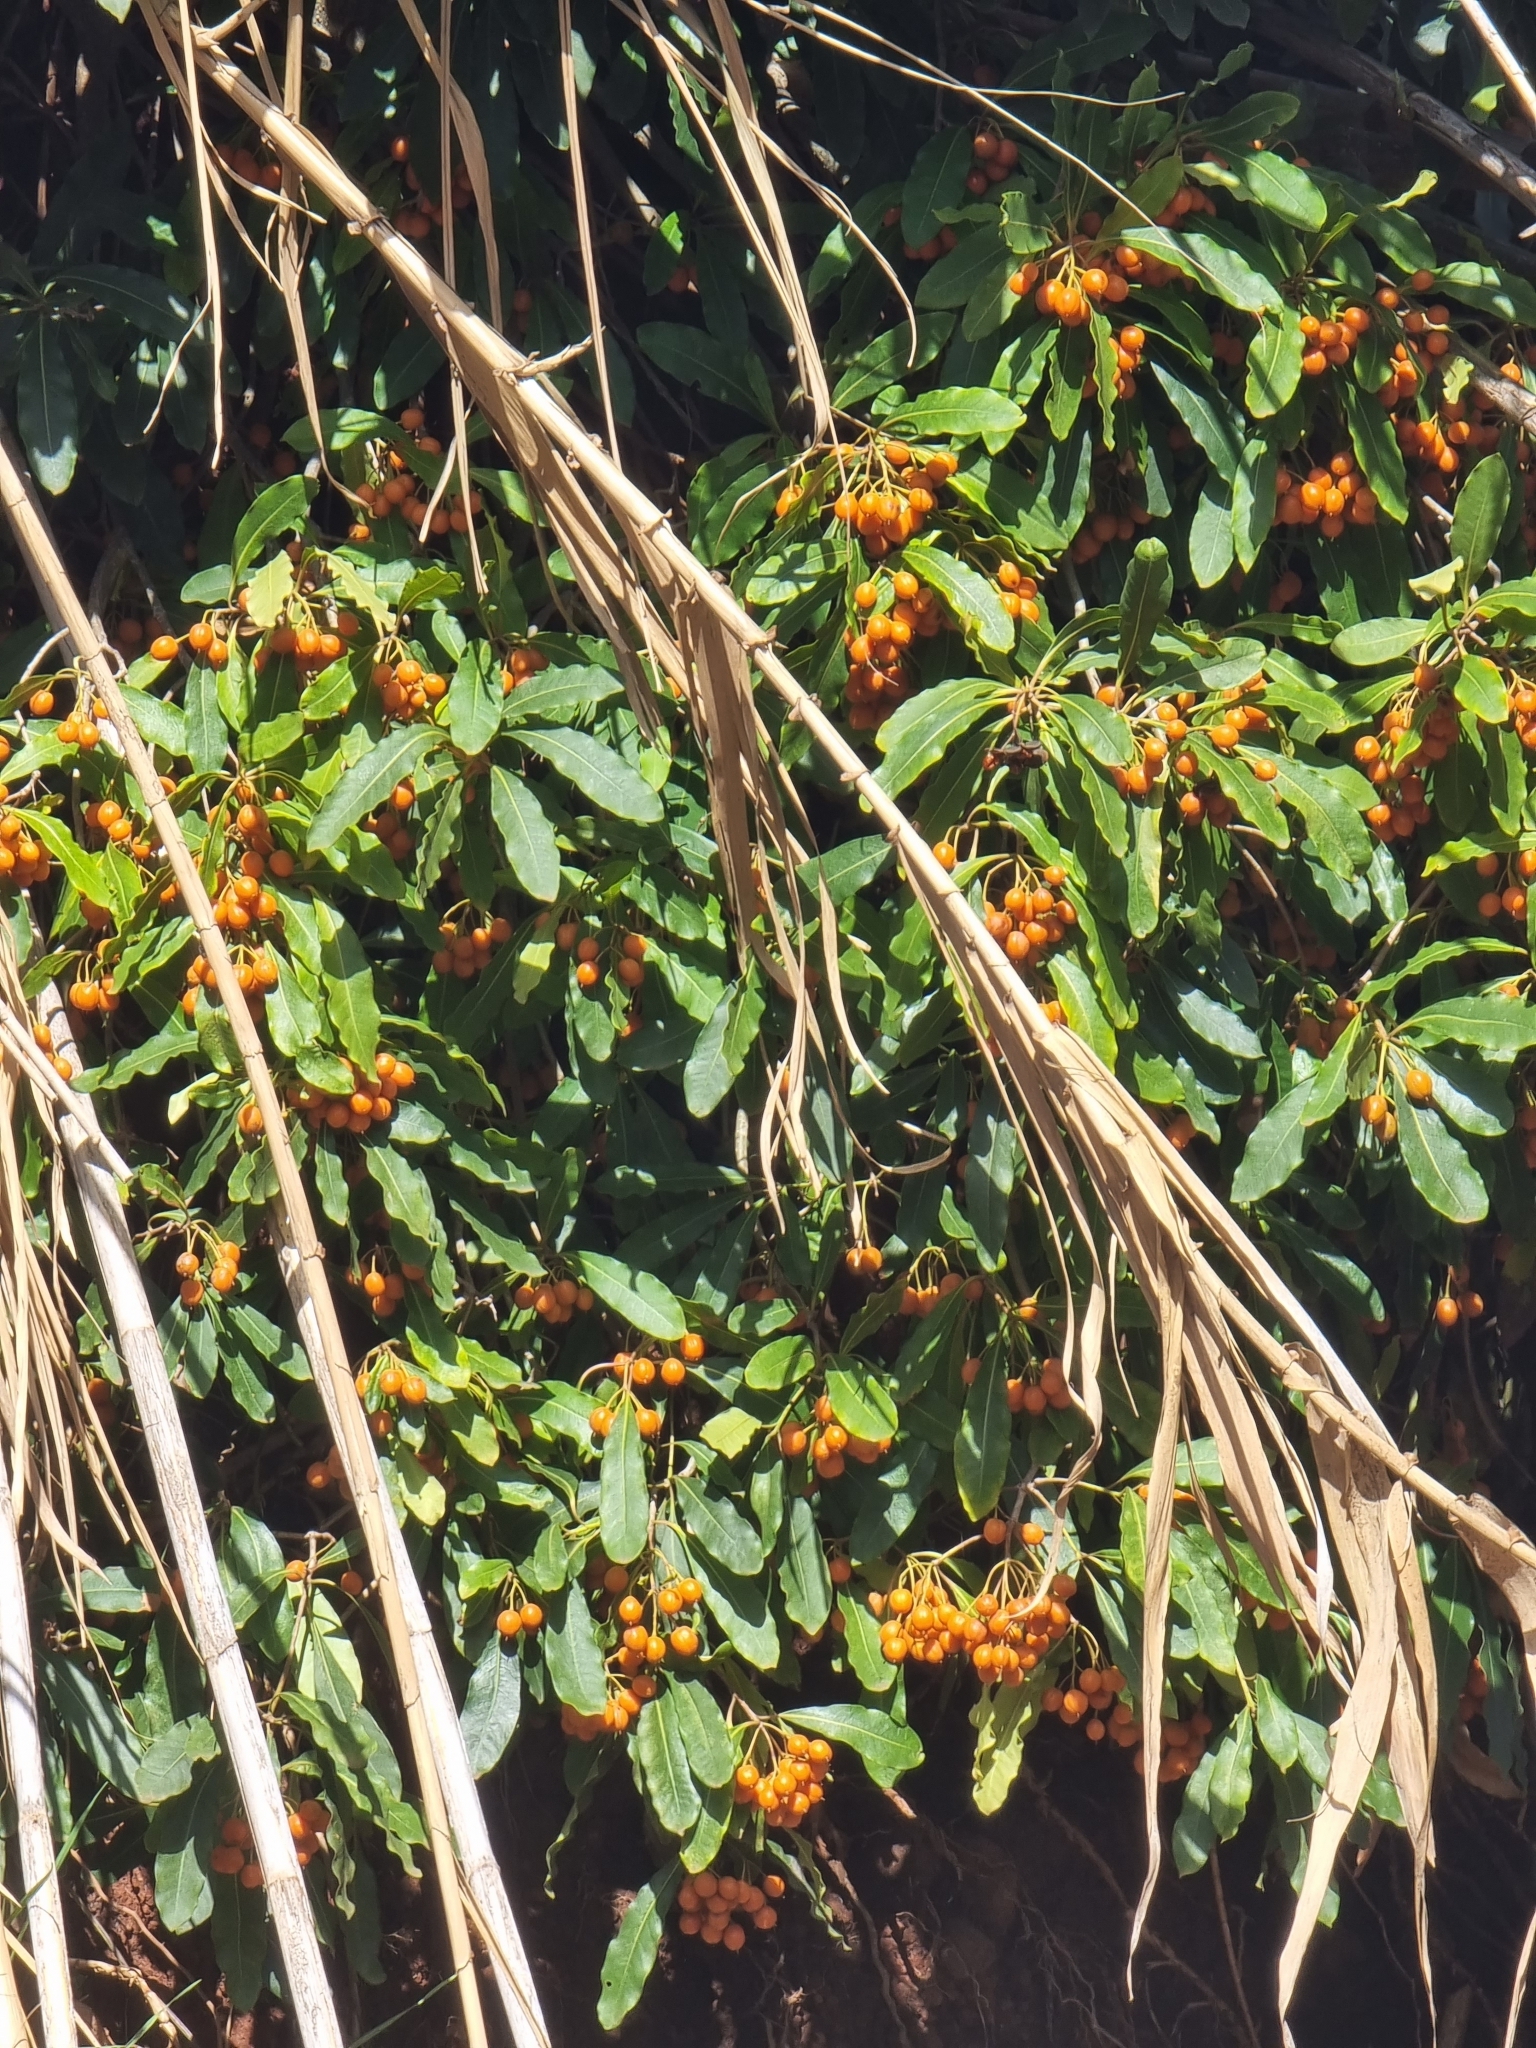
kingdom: Plantae
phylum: Tracheophyta
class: Magnoliopsida
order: Apiales
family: Pittosporaceae
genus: Pittosporum
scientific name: Pittosporum undulatum
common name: Australian cheesewood
